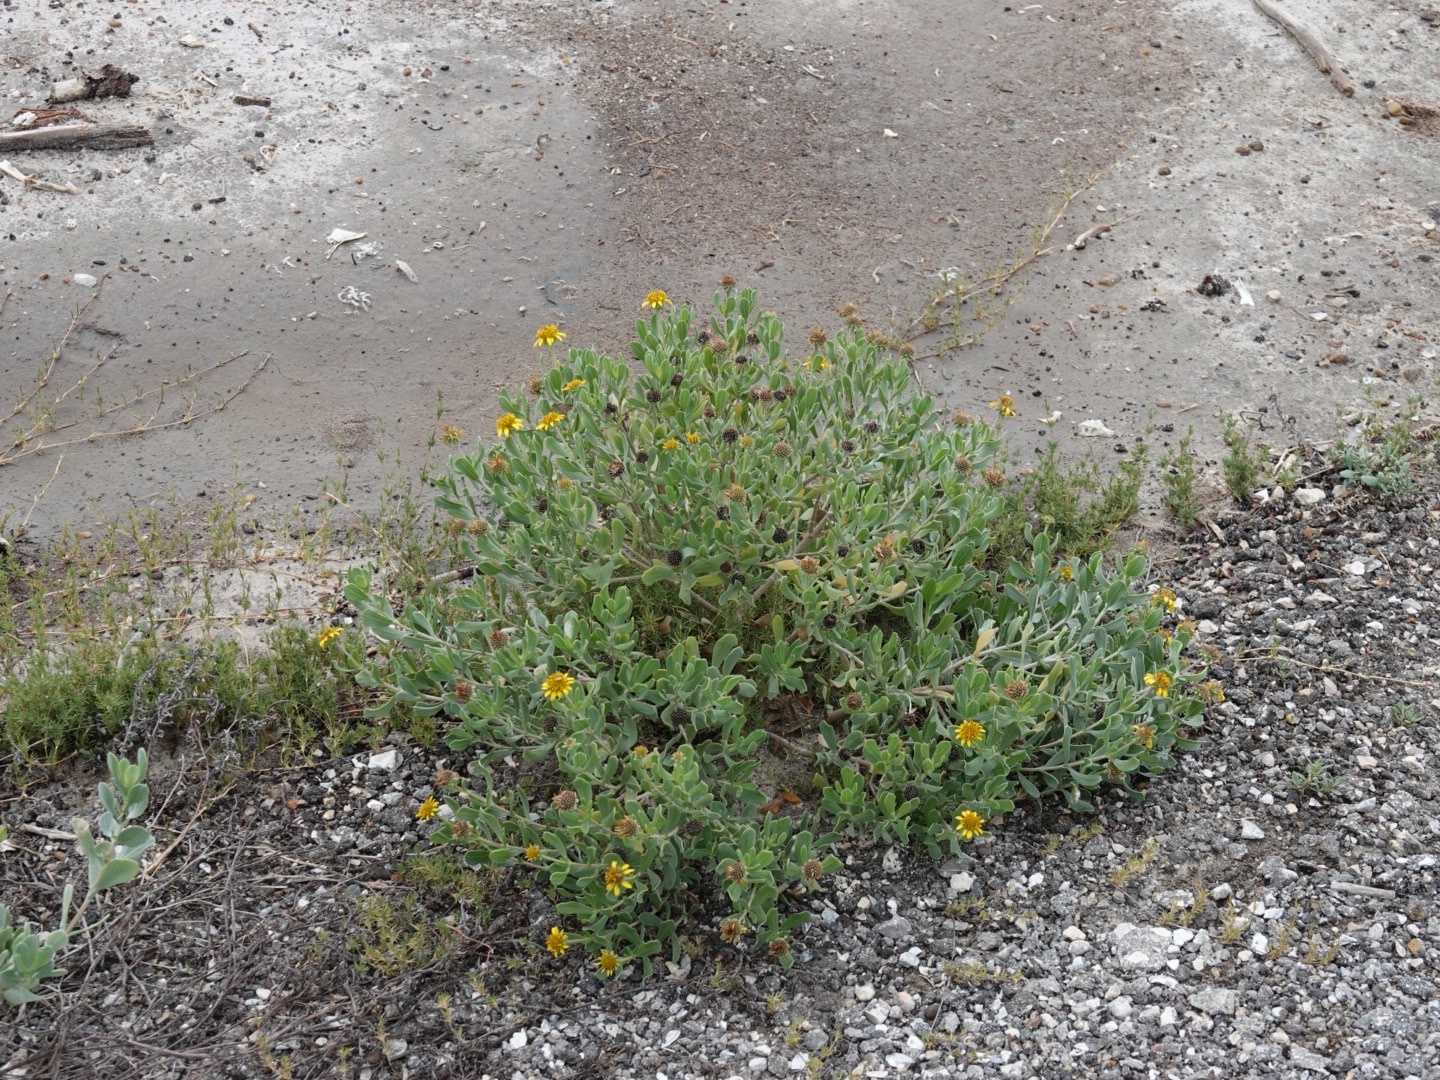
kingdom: Plantae
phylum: Tracheophyta
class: Magnoliopsida
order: Asterales
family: Asteraceae
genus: Borrichia
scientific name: Borrichia frutescens
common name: Sea oxeye
